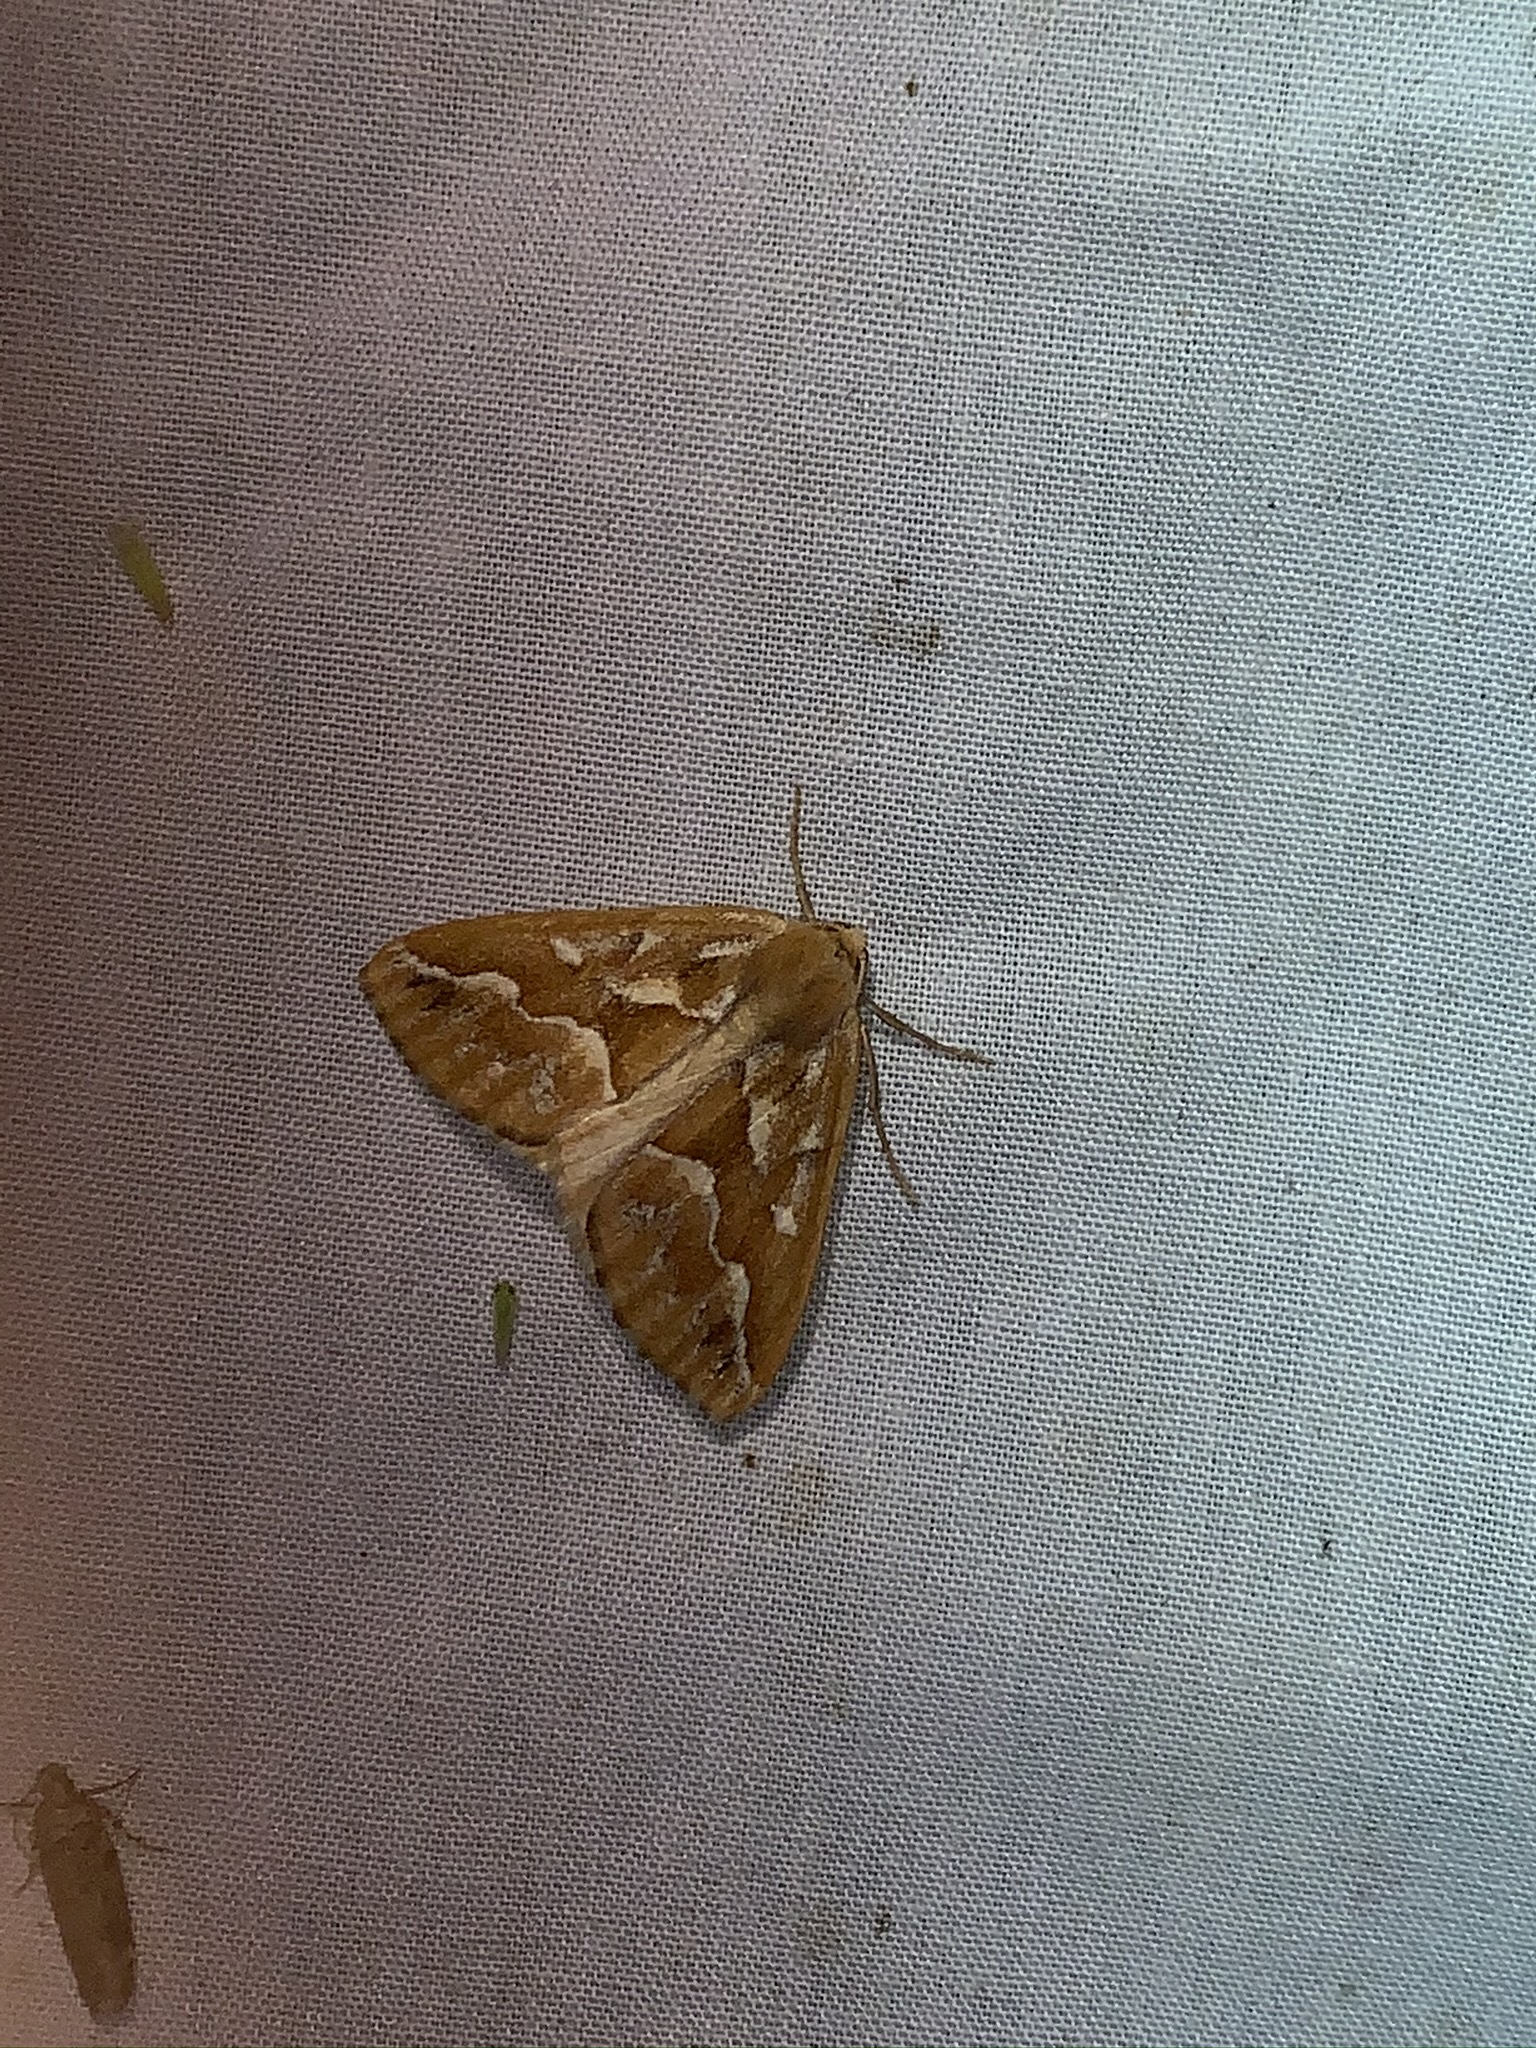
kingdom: Animalia
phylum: Arthropoda
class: Insecta
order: Lepidoptera
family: Geometridae
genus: Caripeta
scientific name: Caripeta piniata
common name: Northern pine looper moth
